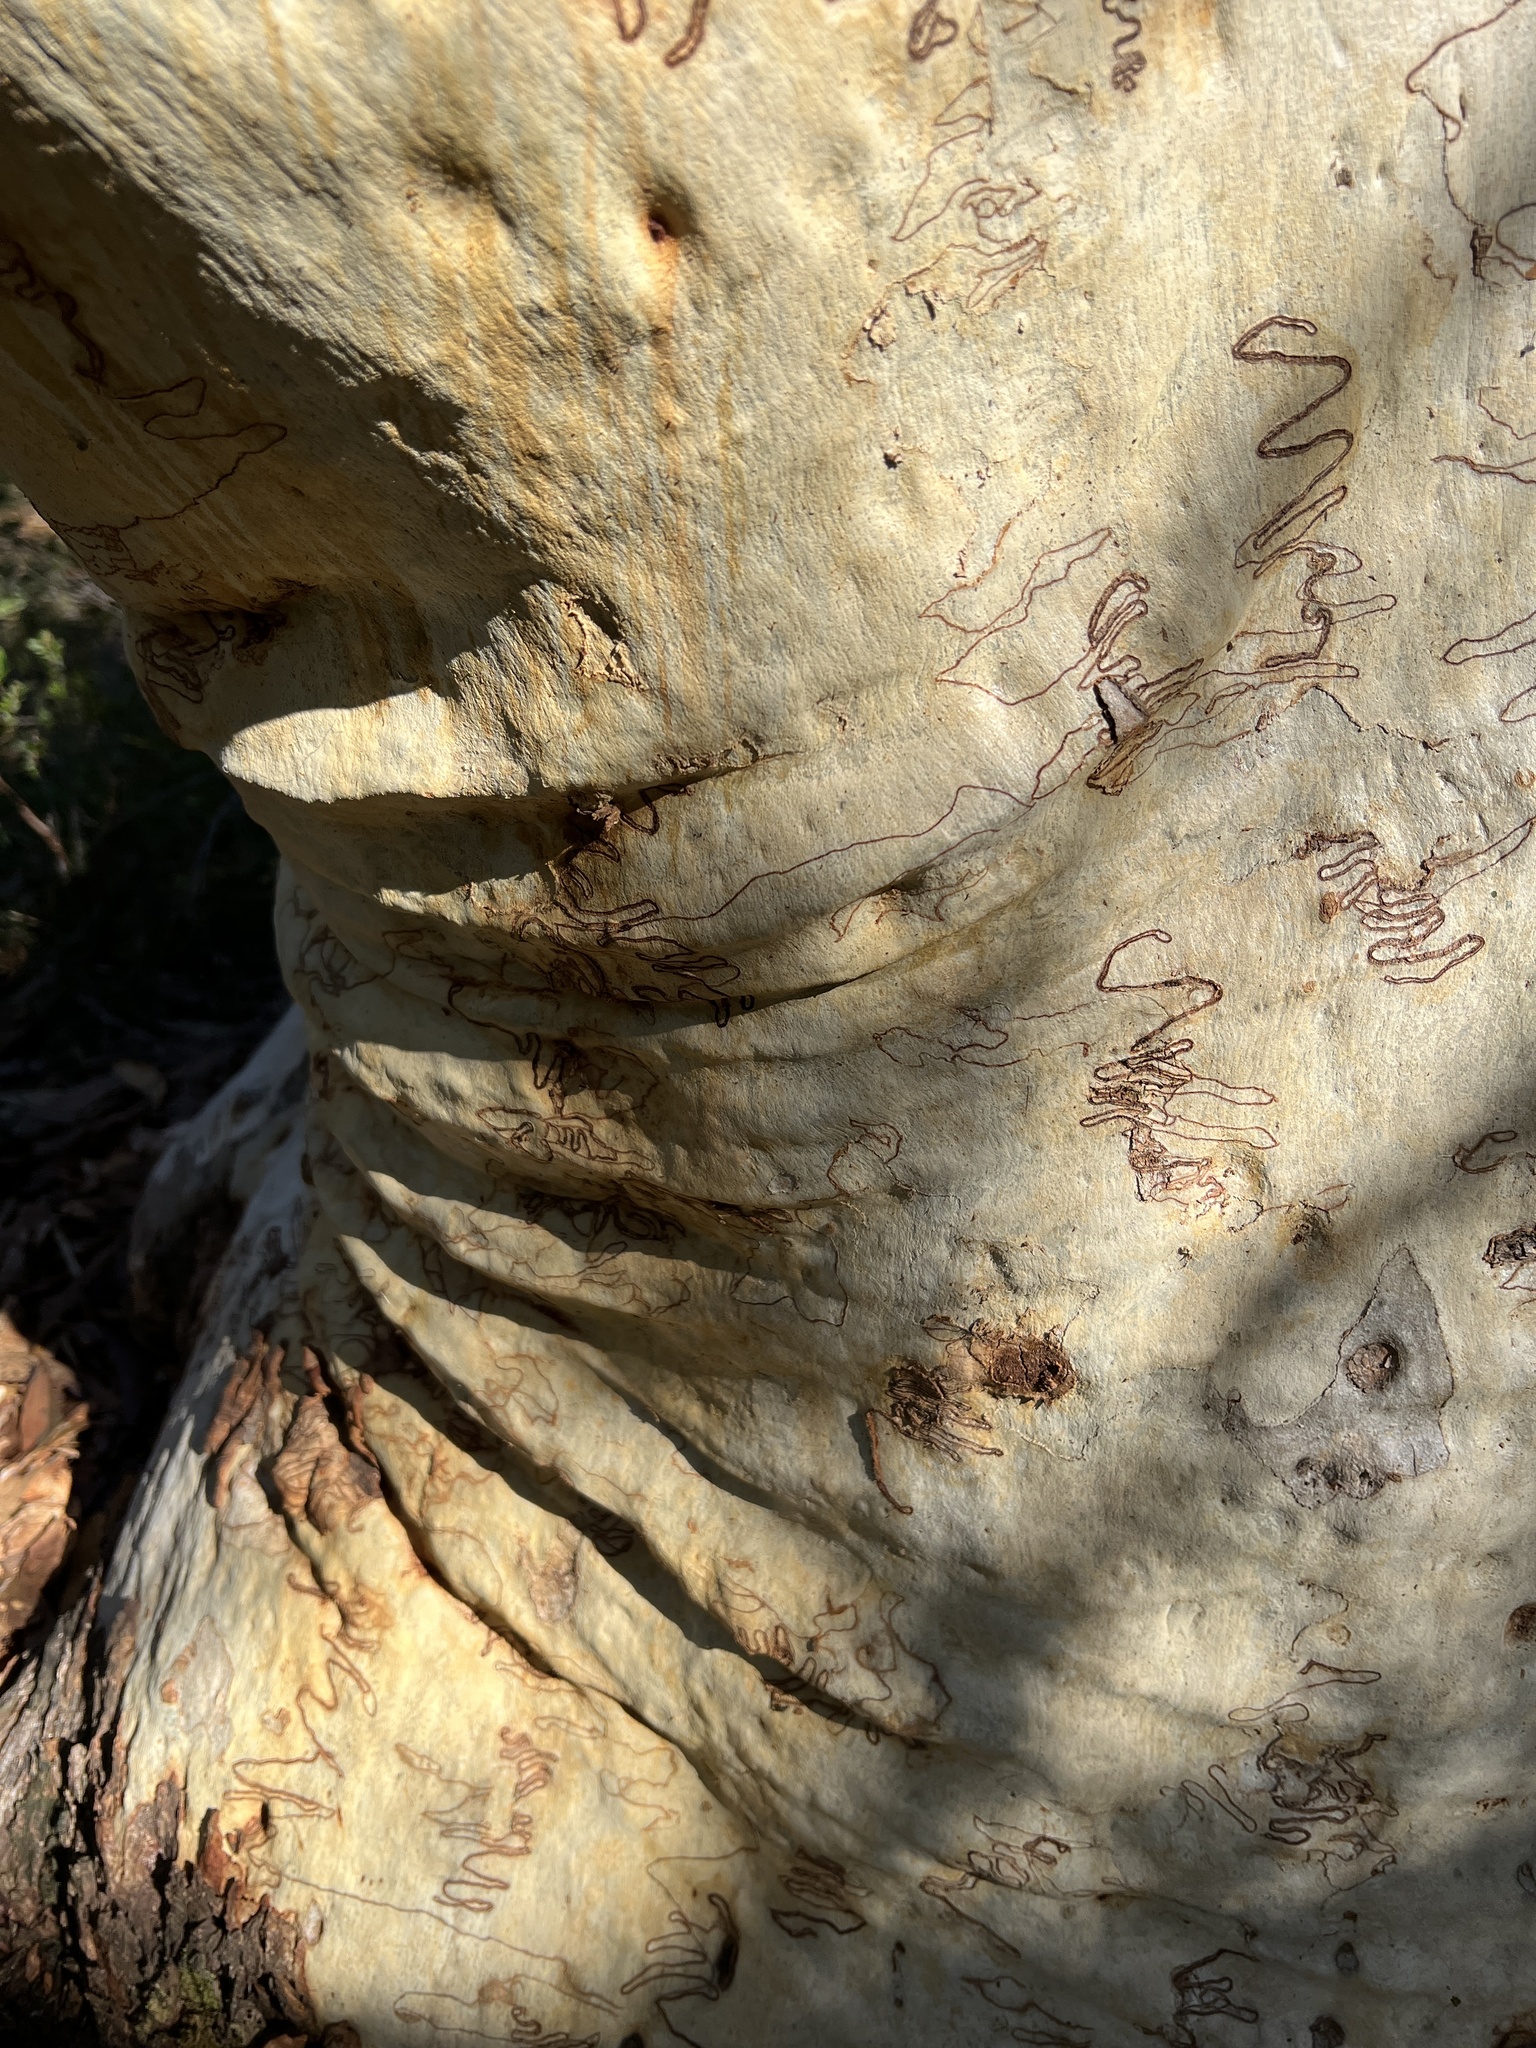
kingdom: Plantae
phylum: Tracheophyta
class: Magnoliopsida
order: Myrtales
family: Myrtaceae
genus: Eucalyptus
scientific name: Eucalyptus haemastoma
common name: Scribbly-gum
